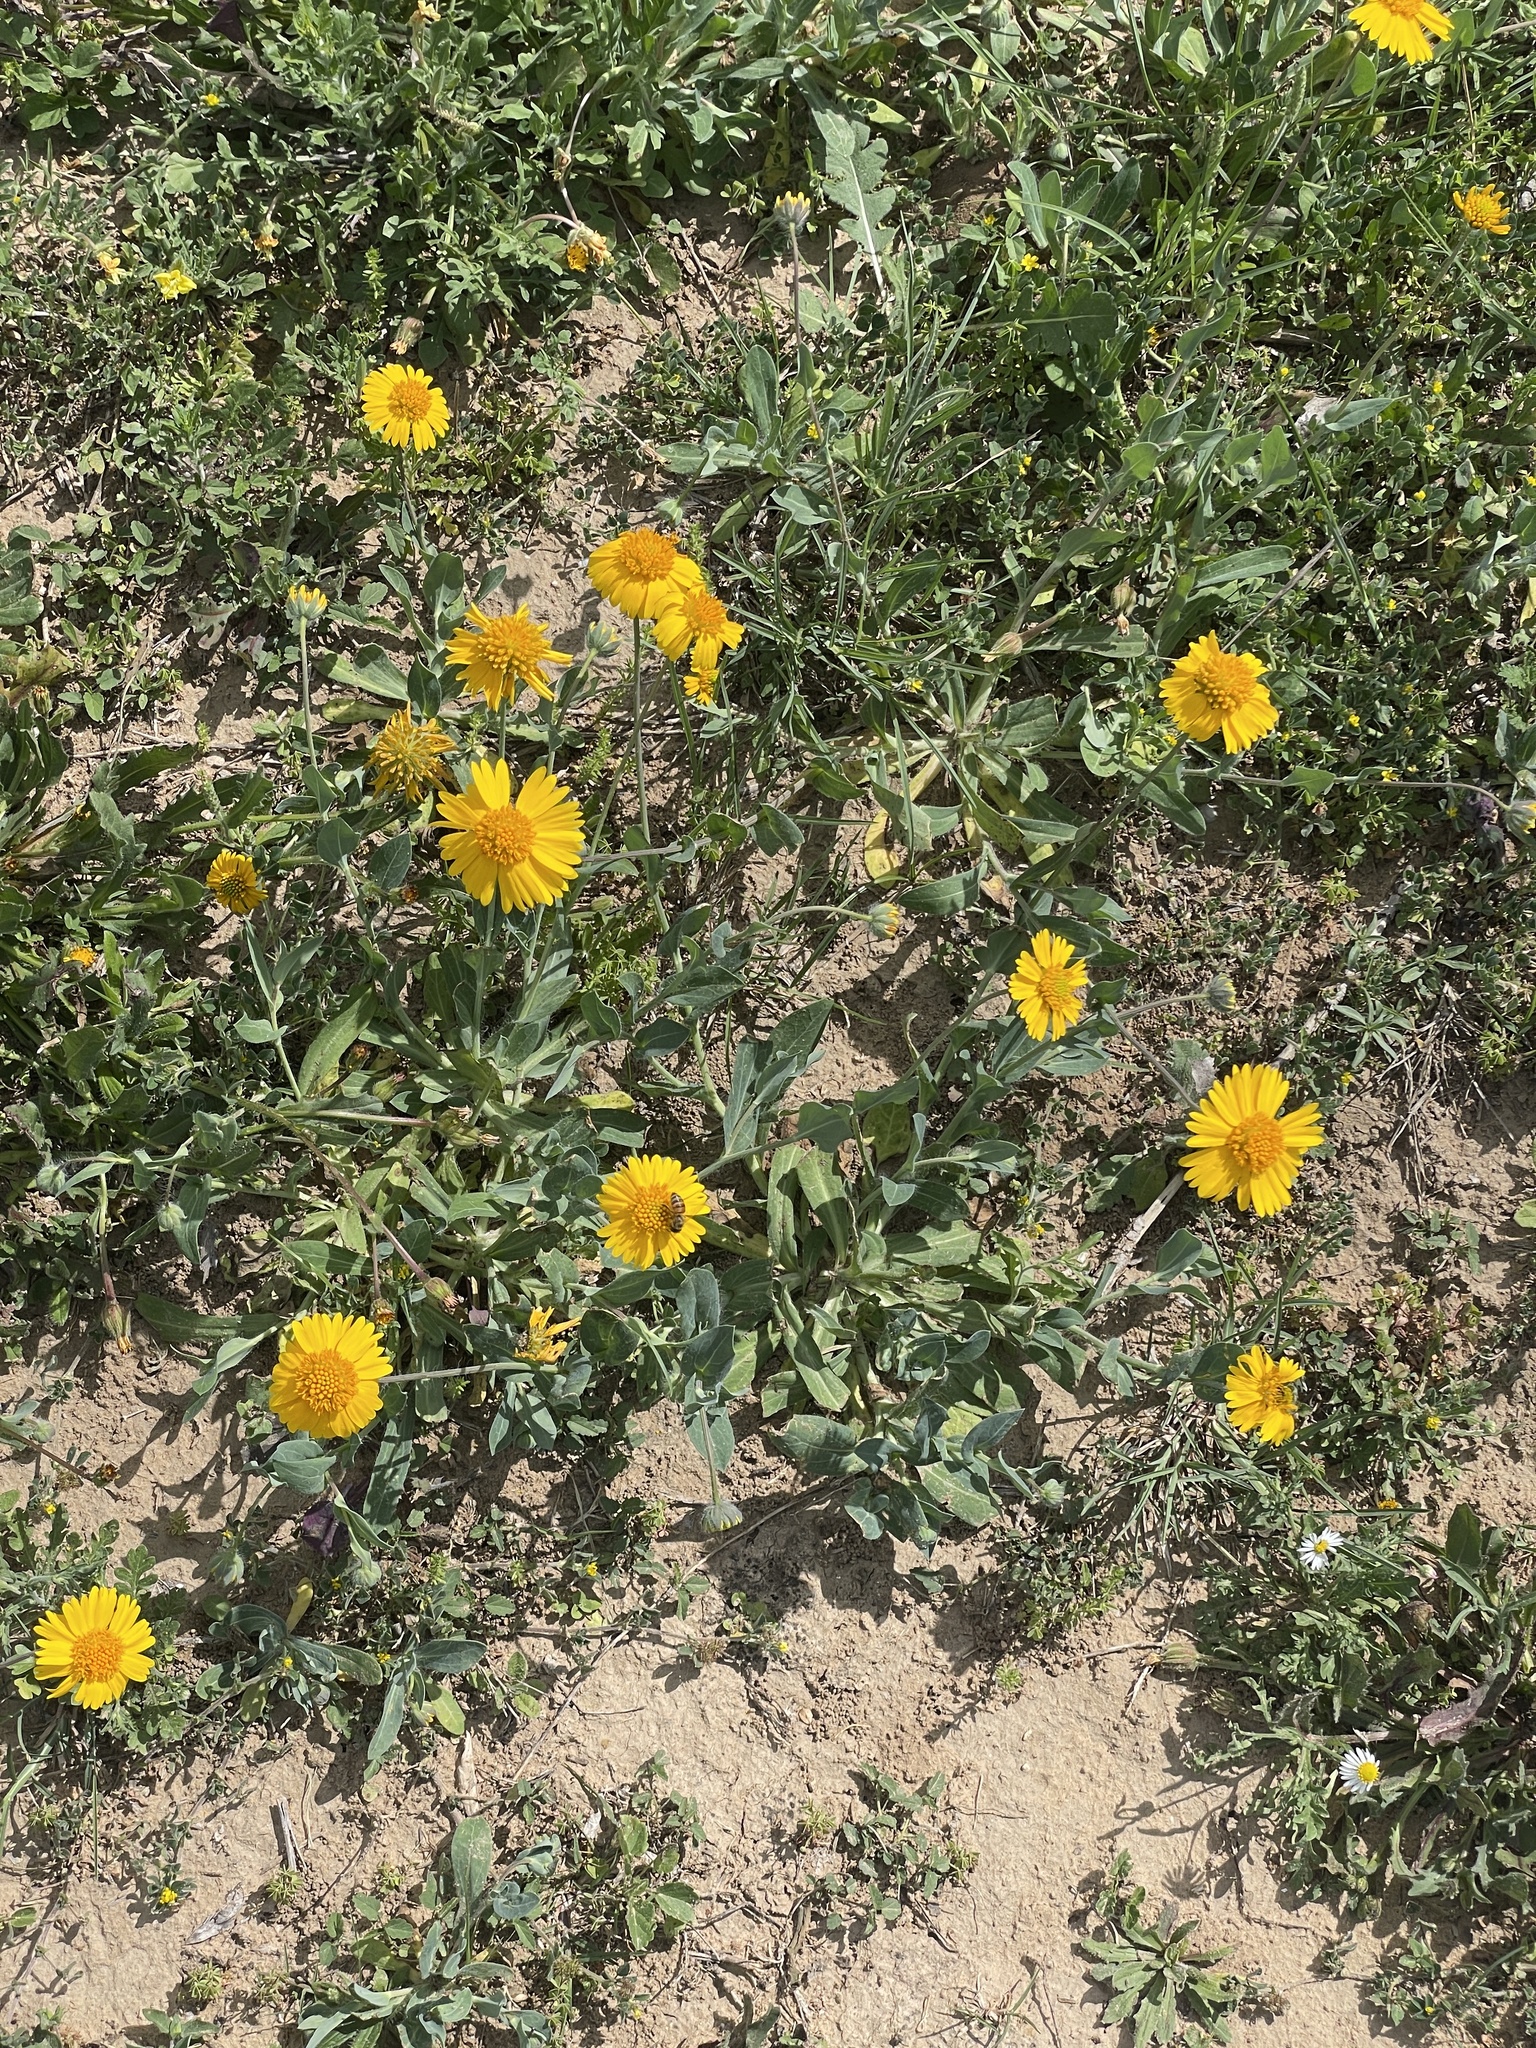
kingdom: Plantae
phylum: Tracheophyta
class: Magnoliopsida
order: Asterales
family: Asteraceae
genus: Amblyolepis
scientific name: Amblyolepis setigera
